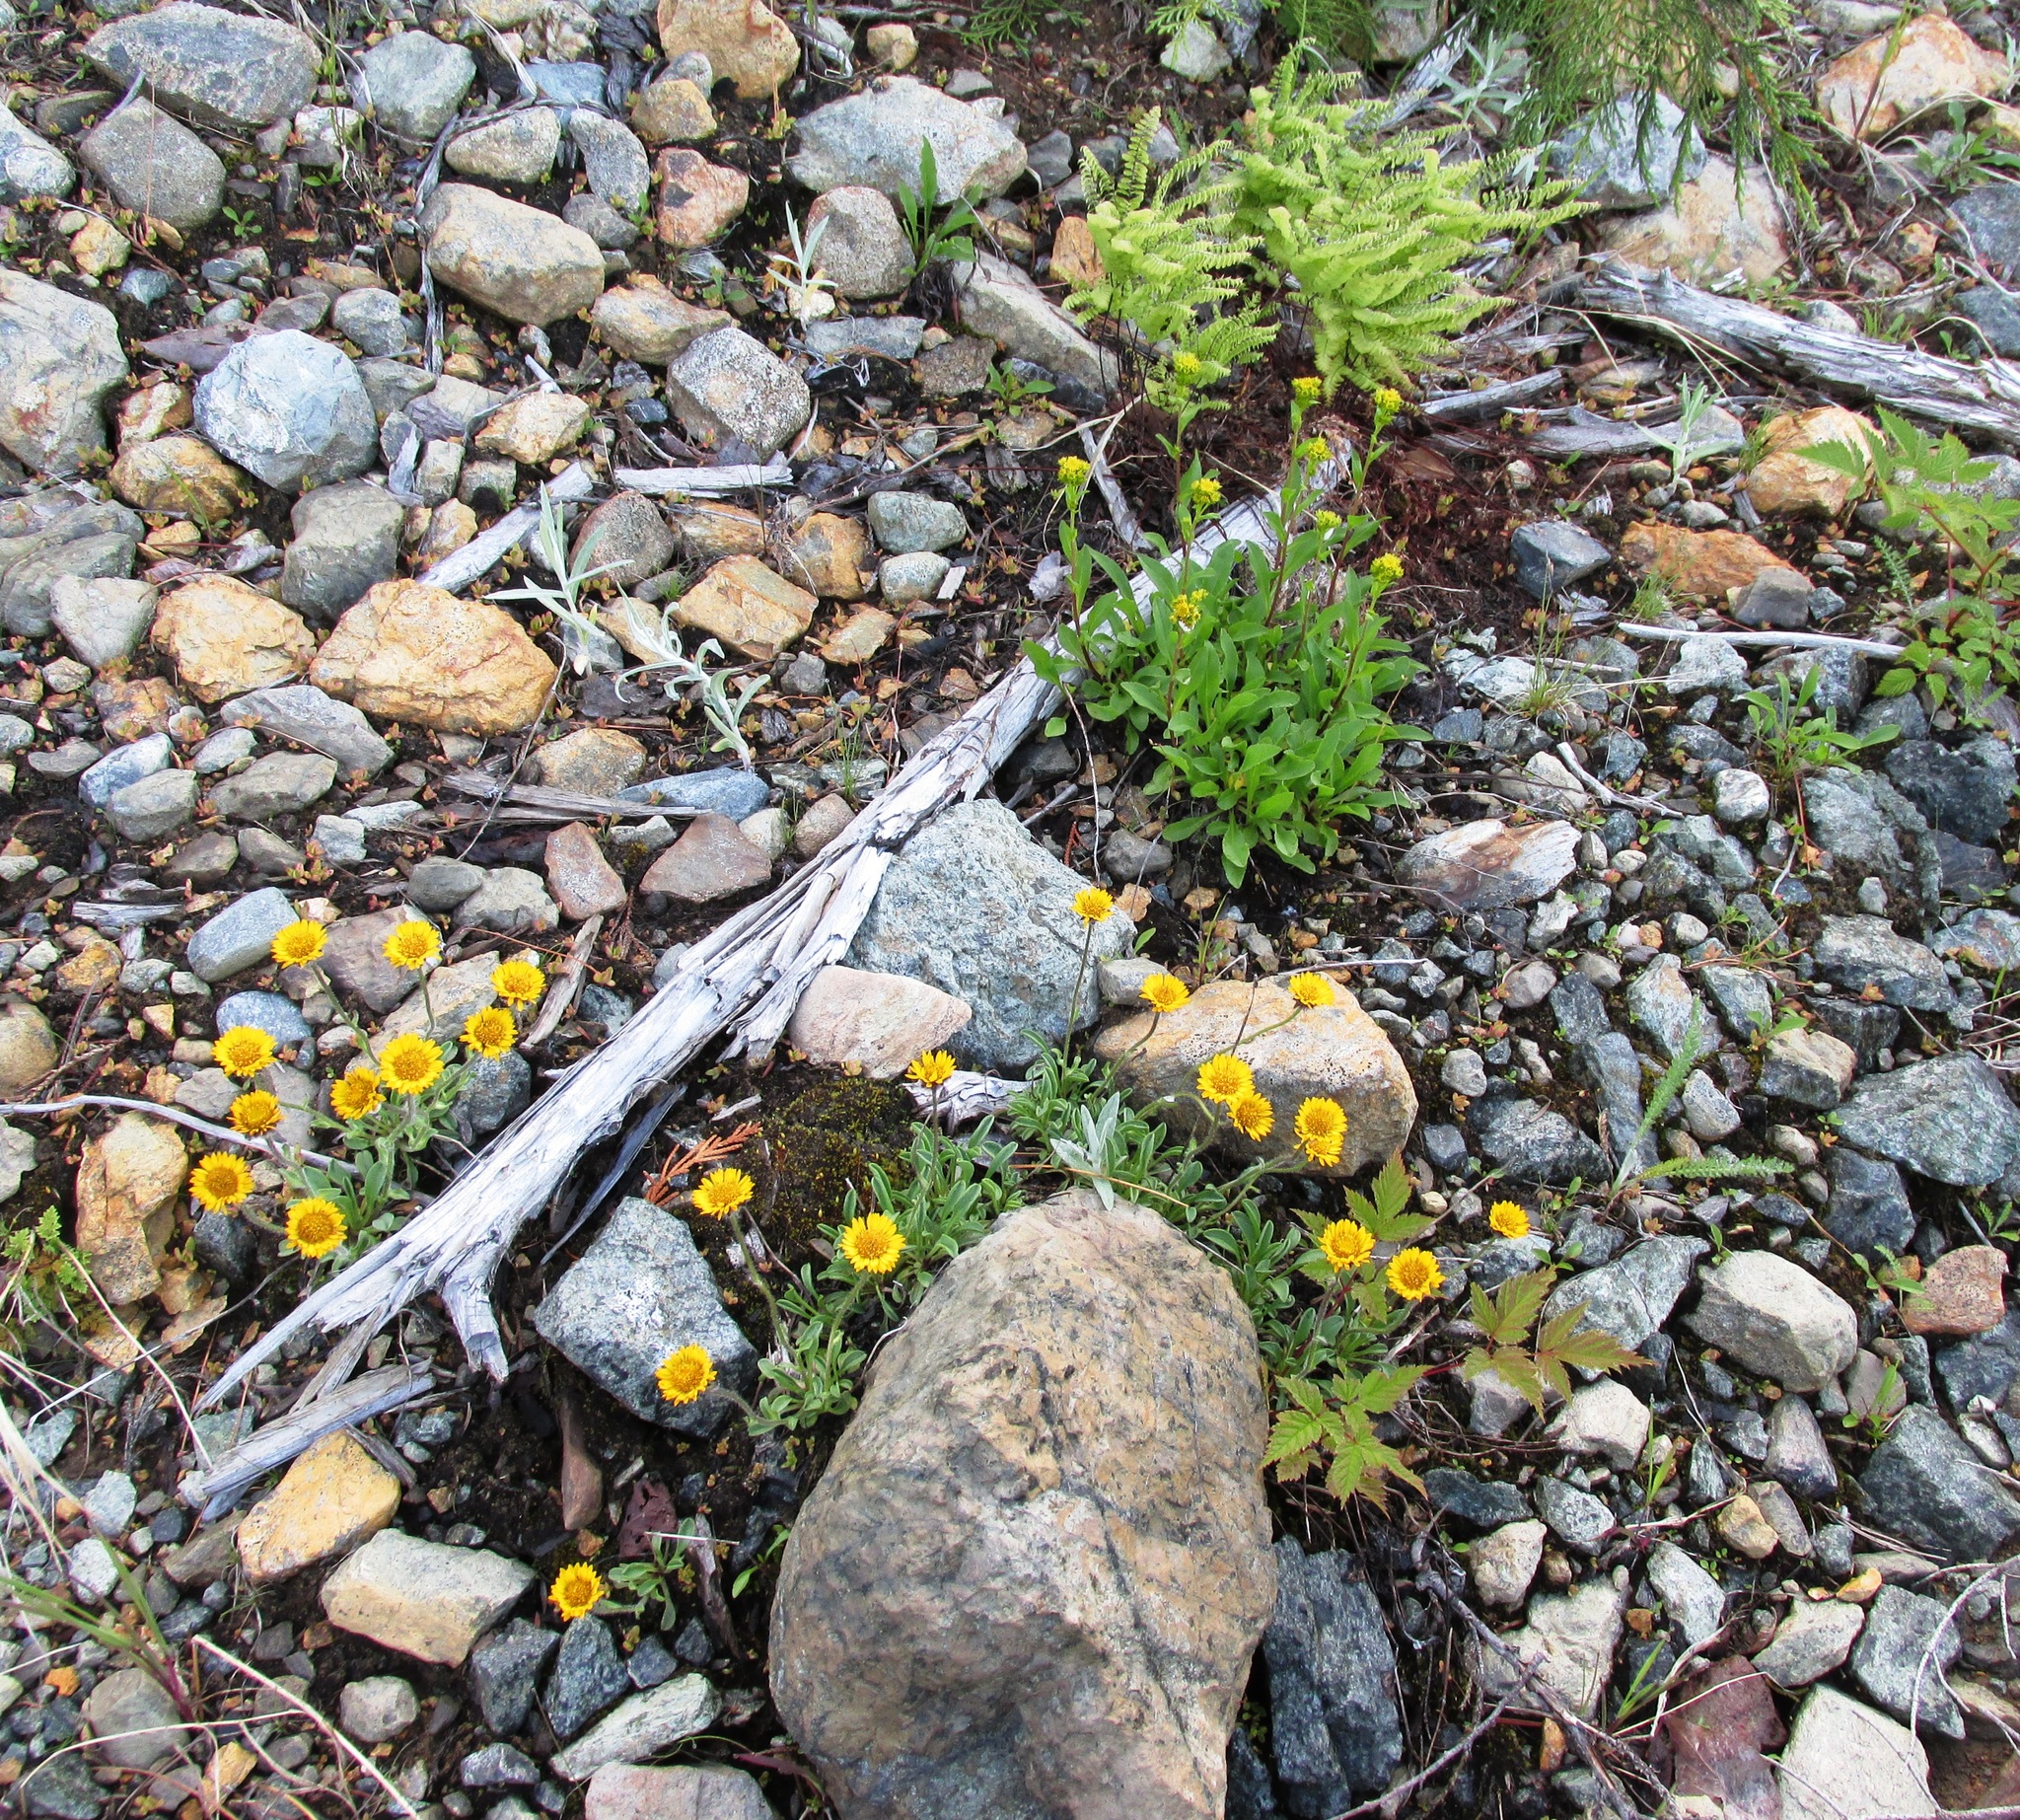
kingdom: Plantae
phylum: Tracheophyta
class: Magnoliopsida
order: Asterales
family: Asteraceae
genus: Erigeron
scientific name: Erigeron aureus
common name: Alpine yellow fleabane
